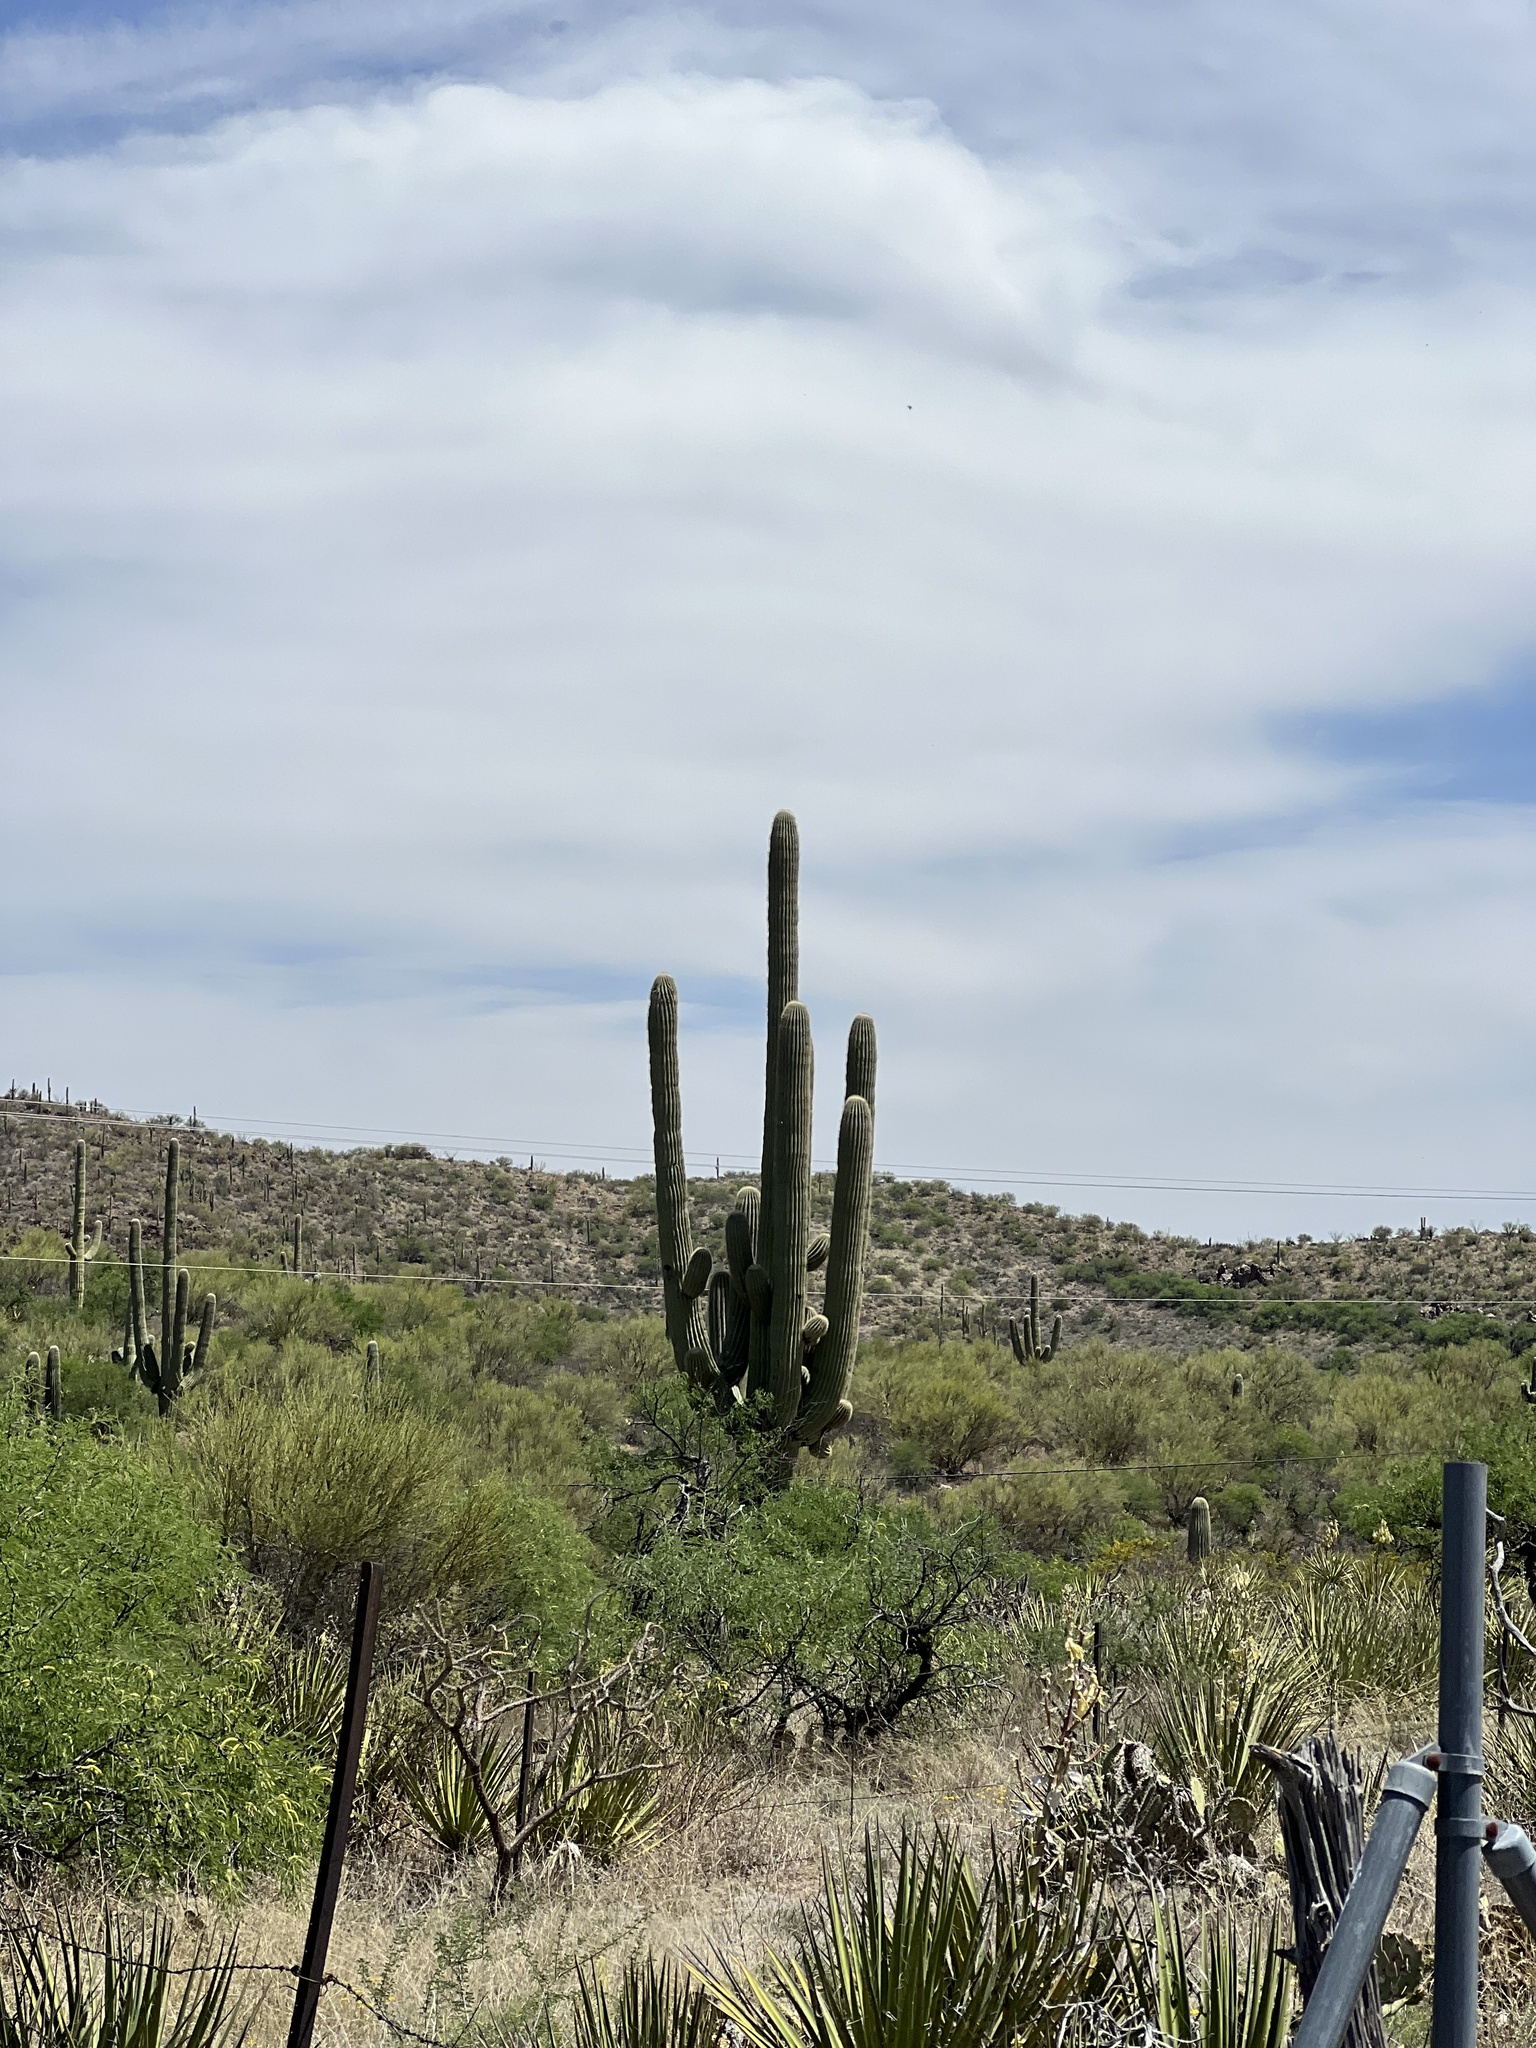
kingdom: Plantae
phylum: Tracheophyta
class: Magnoliopsida
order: Caryophyllales
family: Cactaceae
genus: Carnegiea
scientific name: Carnegiea gigantea
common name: Saguaro
